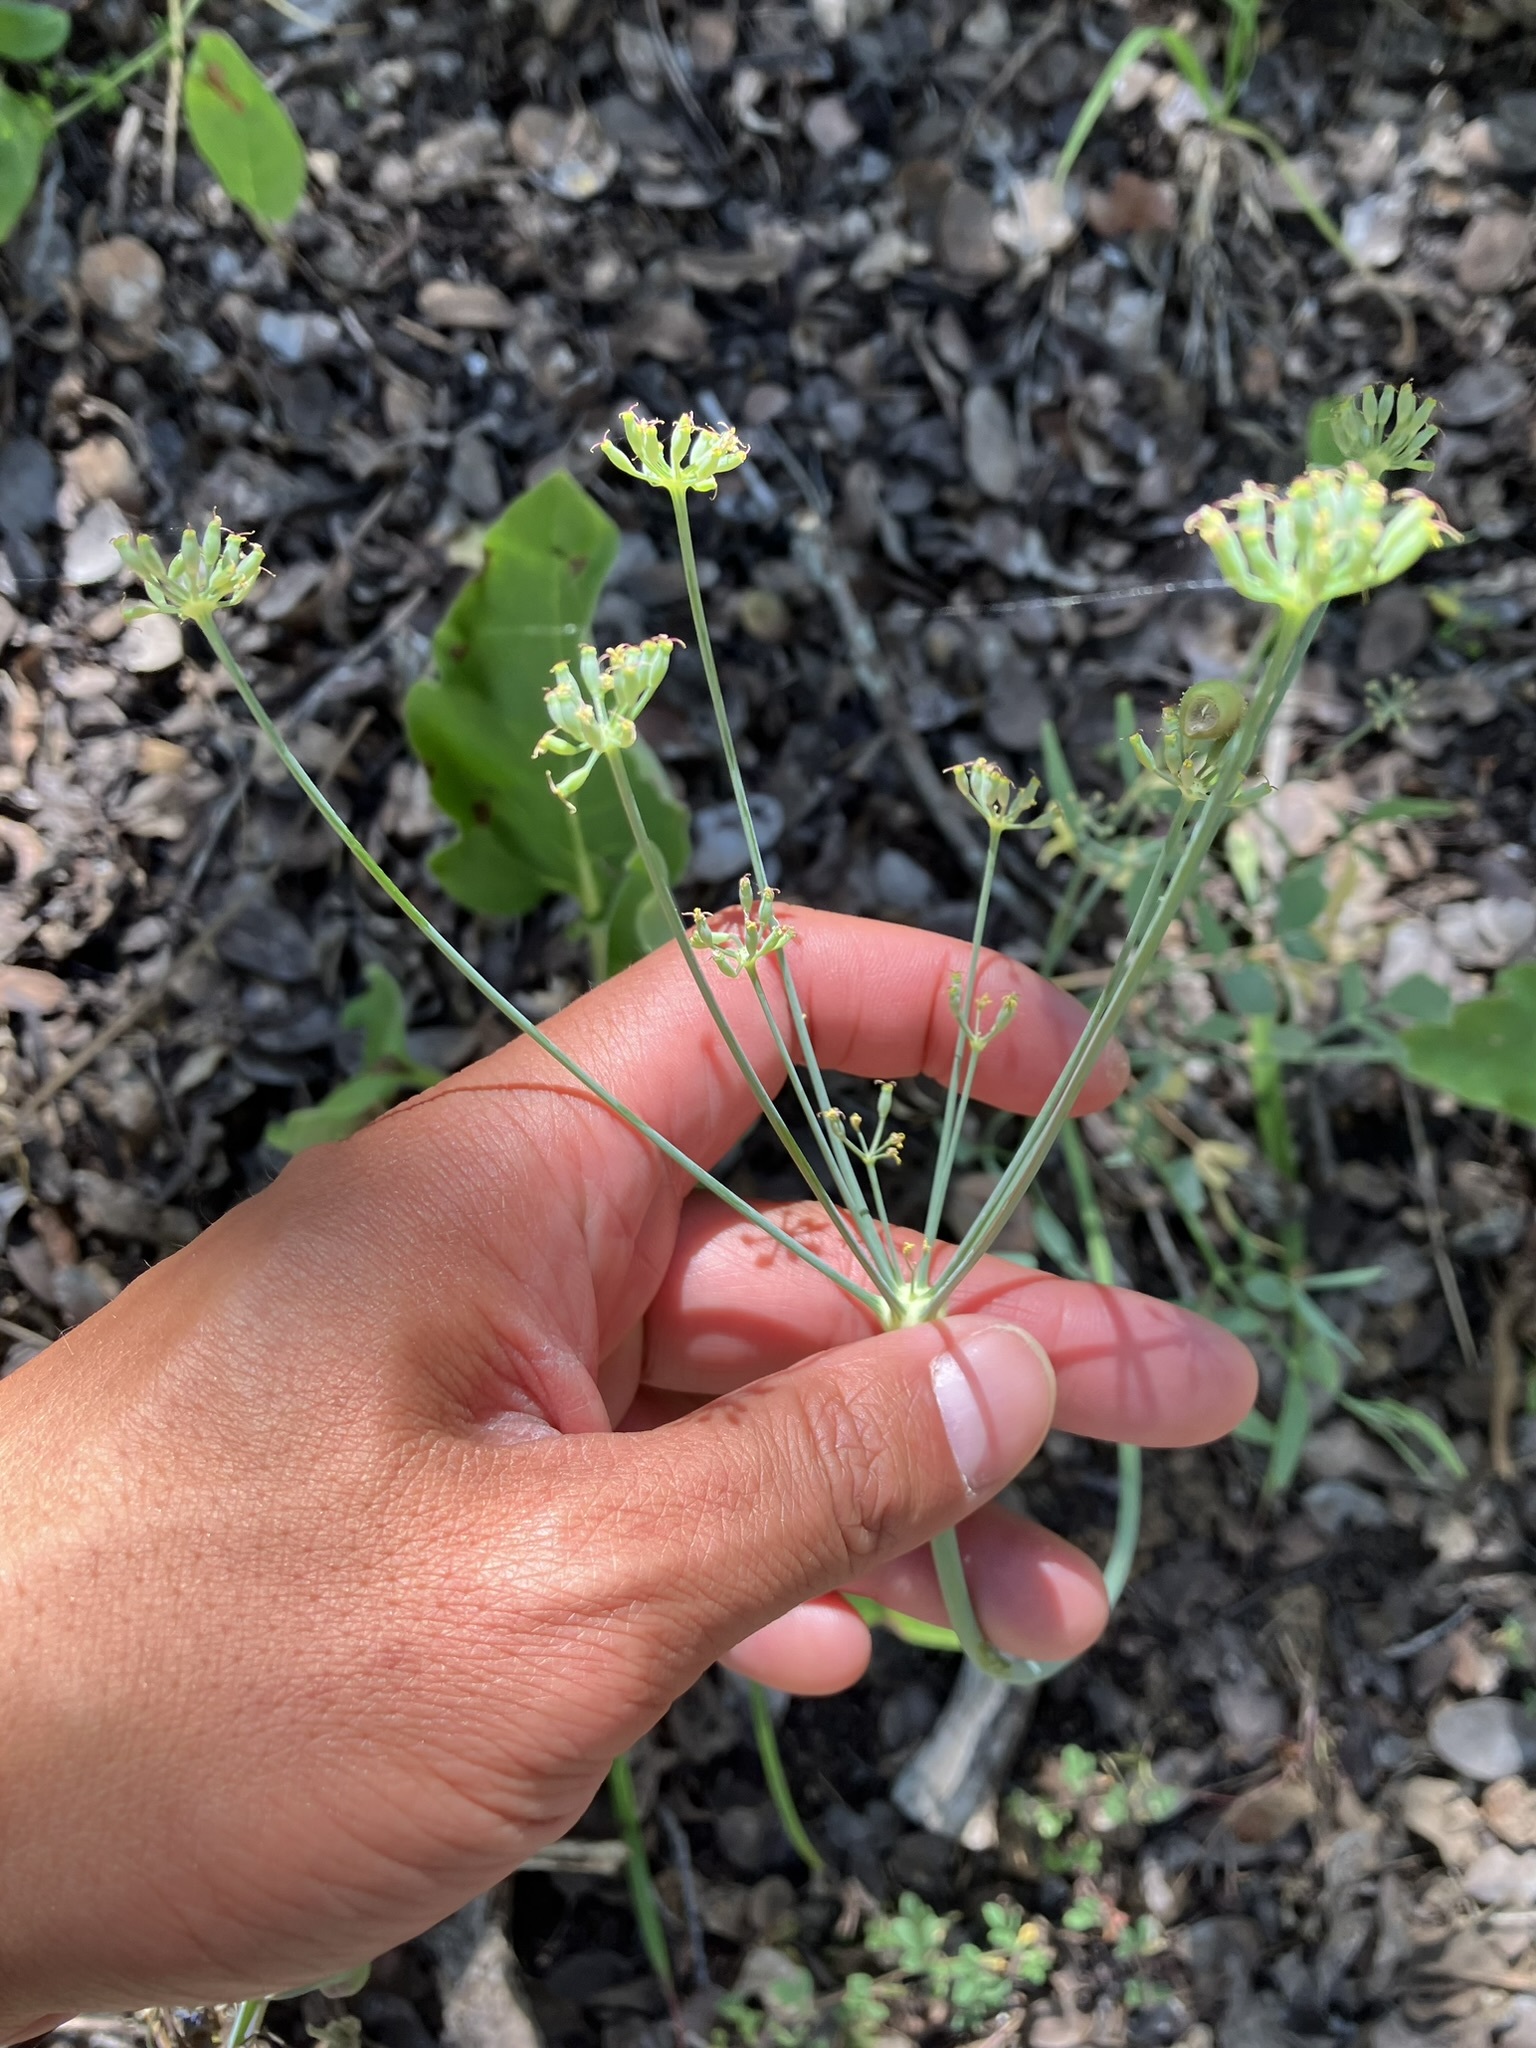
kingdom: Plantae
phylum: Tracheophyta
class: Magnoliopsida
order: Apiales
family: Apiaceae
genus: Lomatium
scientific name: Lomatium nudicaule
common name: Pestle lomatium
